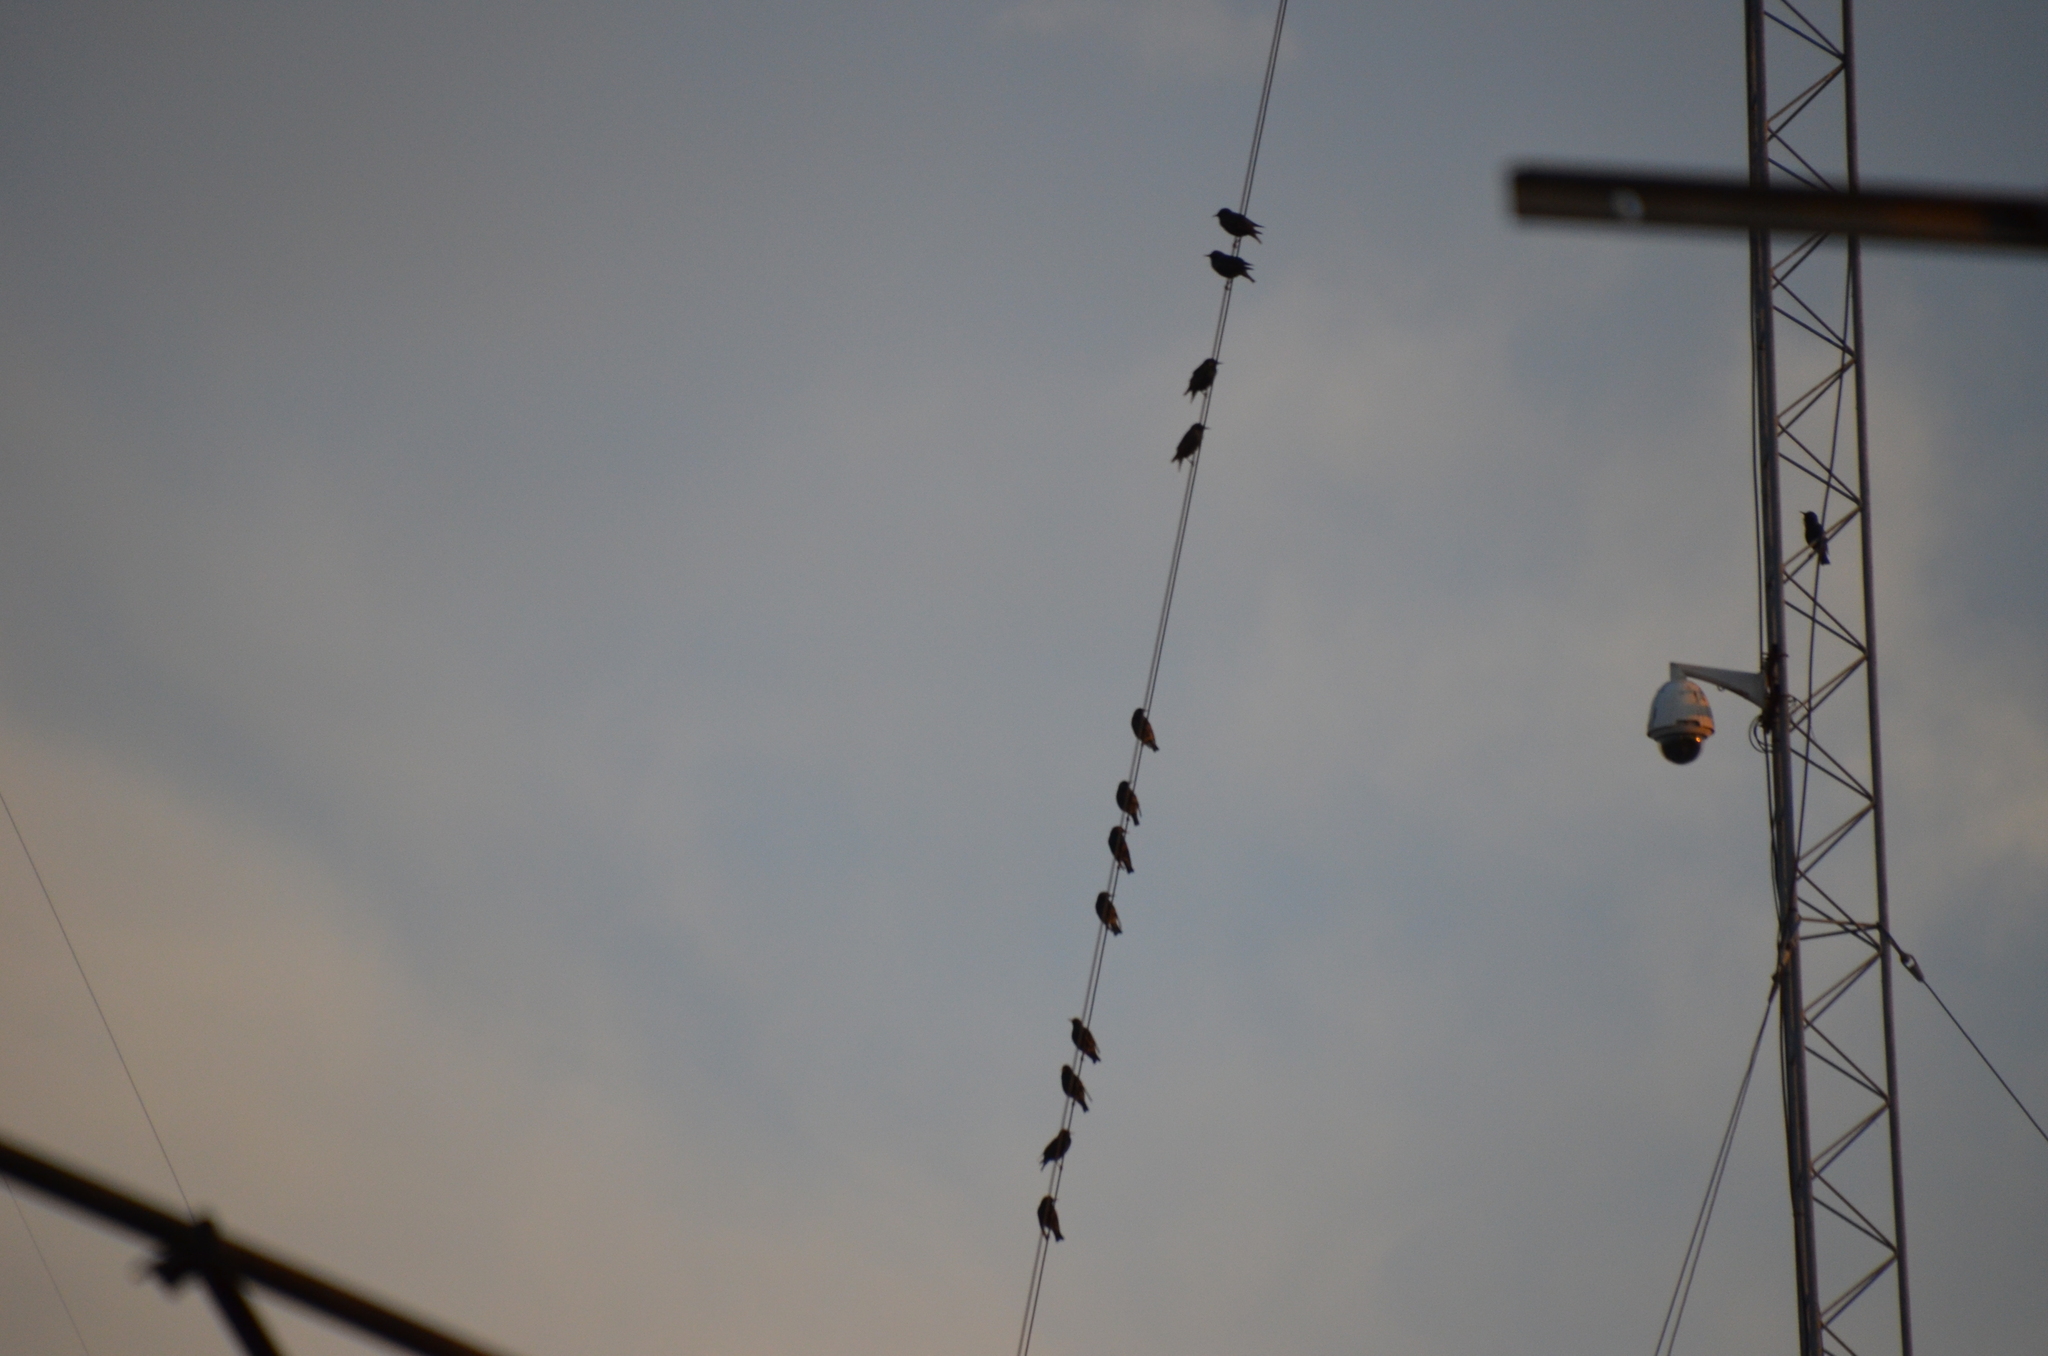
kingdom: Animalia
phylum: Chordata
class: Aves
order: Passeriformes
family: Sturnidae
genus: Sturnus
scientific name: Sturnus vulgaris
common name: Common starling
